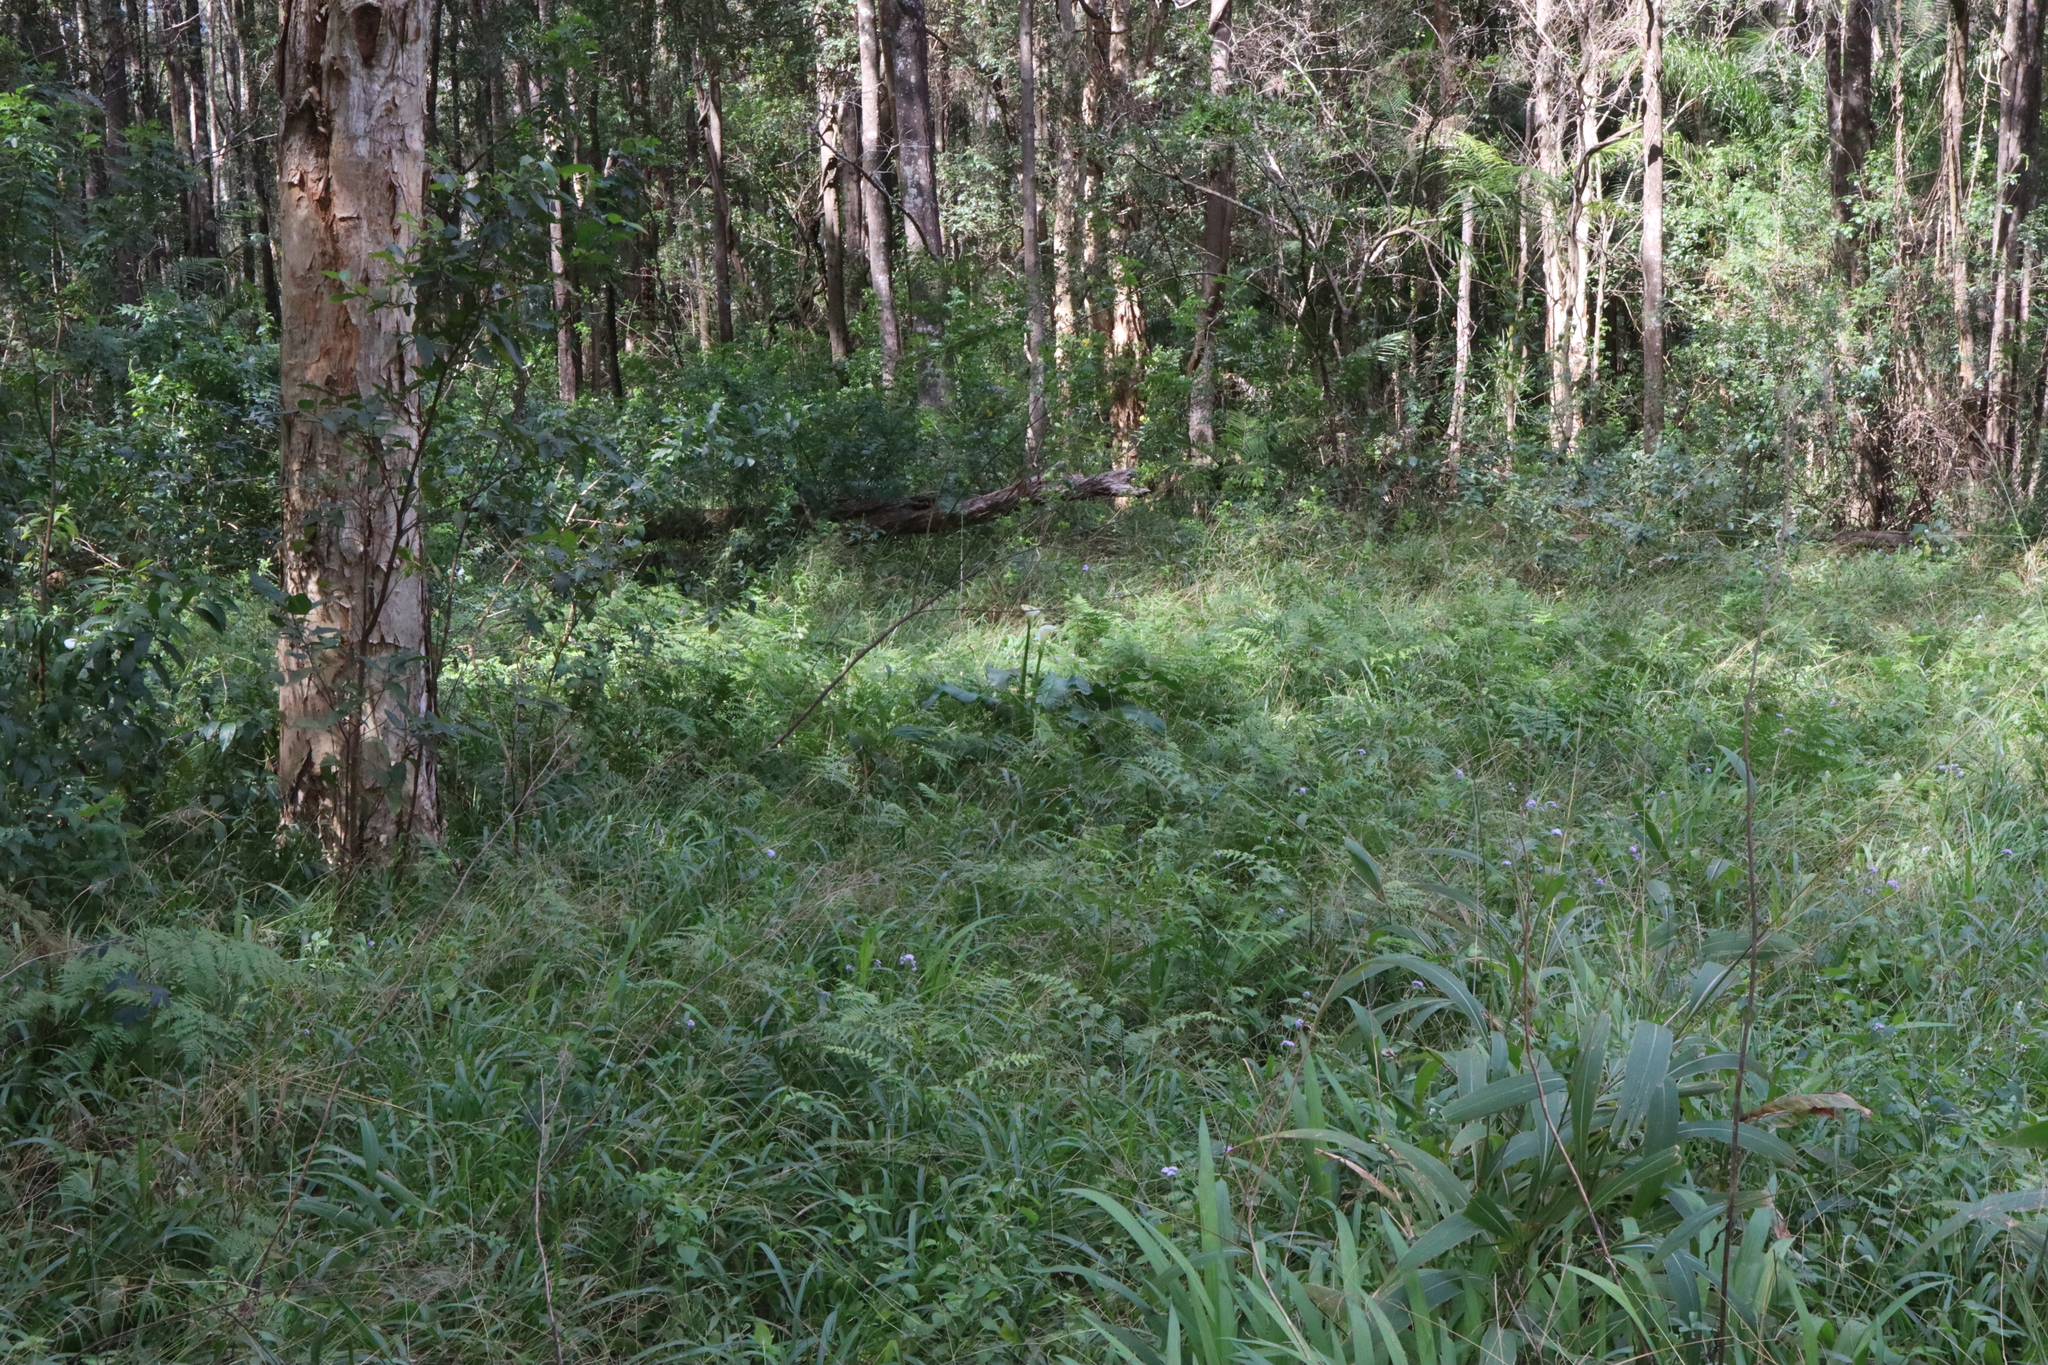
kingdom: Plantae
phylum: Tracheophyta
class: Liliopsida
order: Alismatales
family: Araceae
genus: Zantedeschia
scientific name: Zantedeschia aethiopica
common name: Altar-lily
